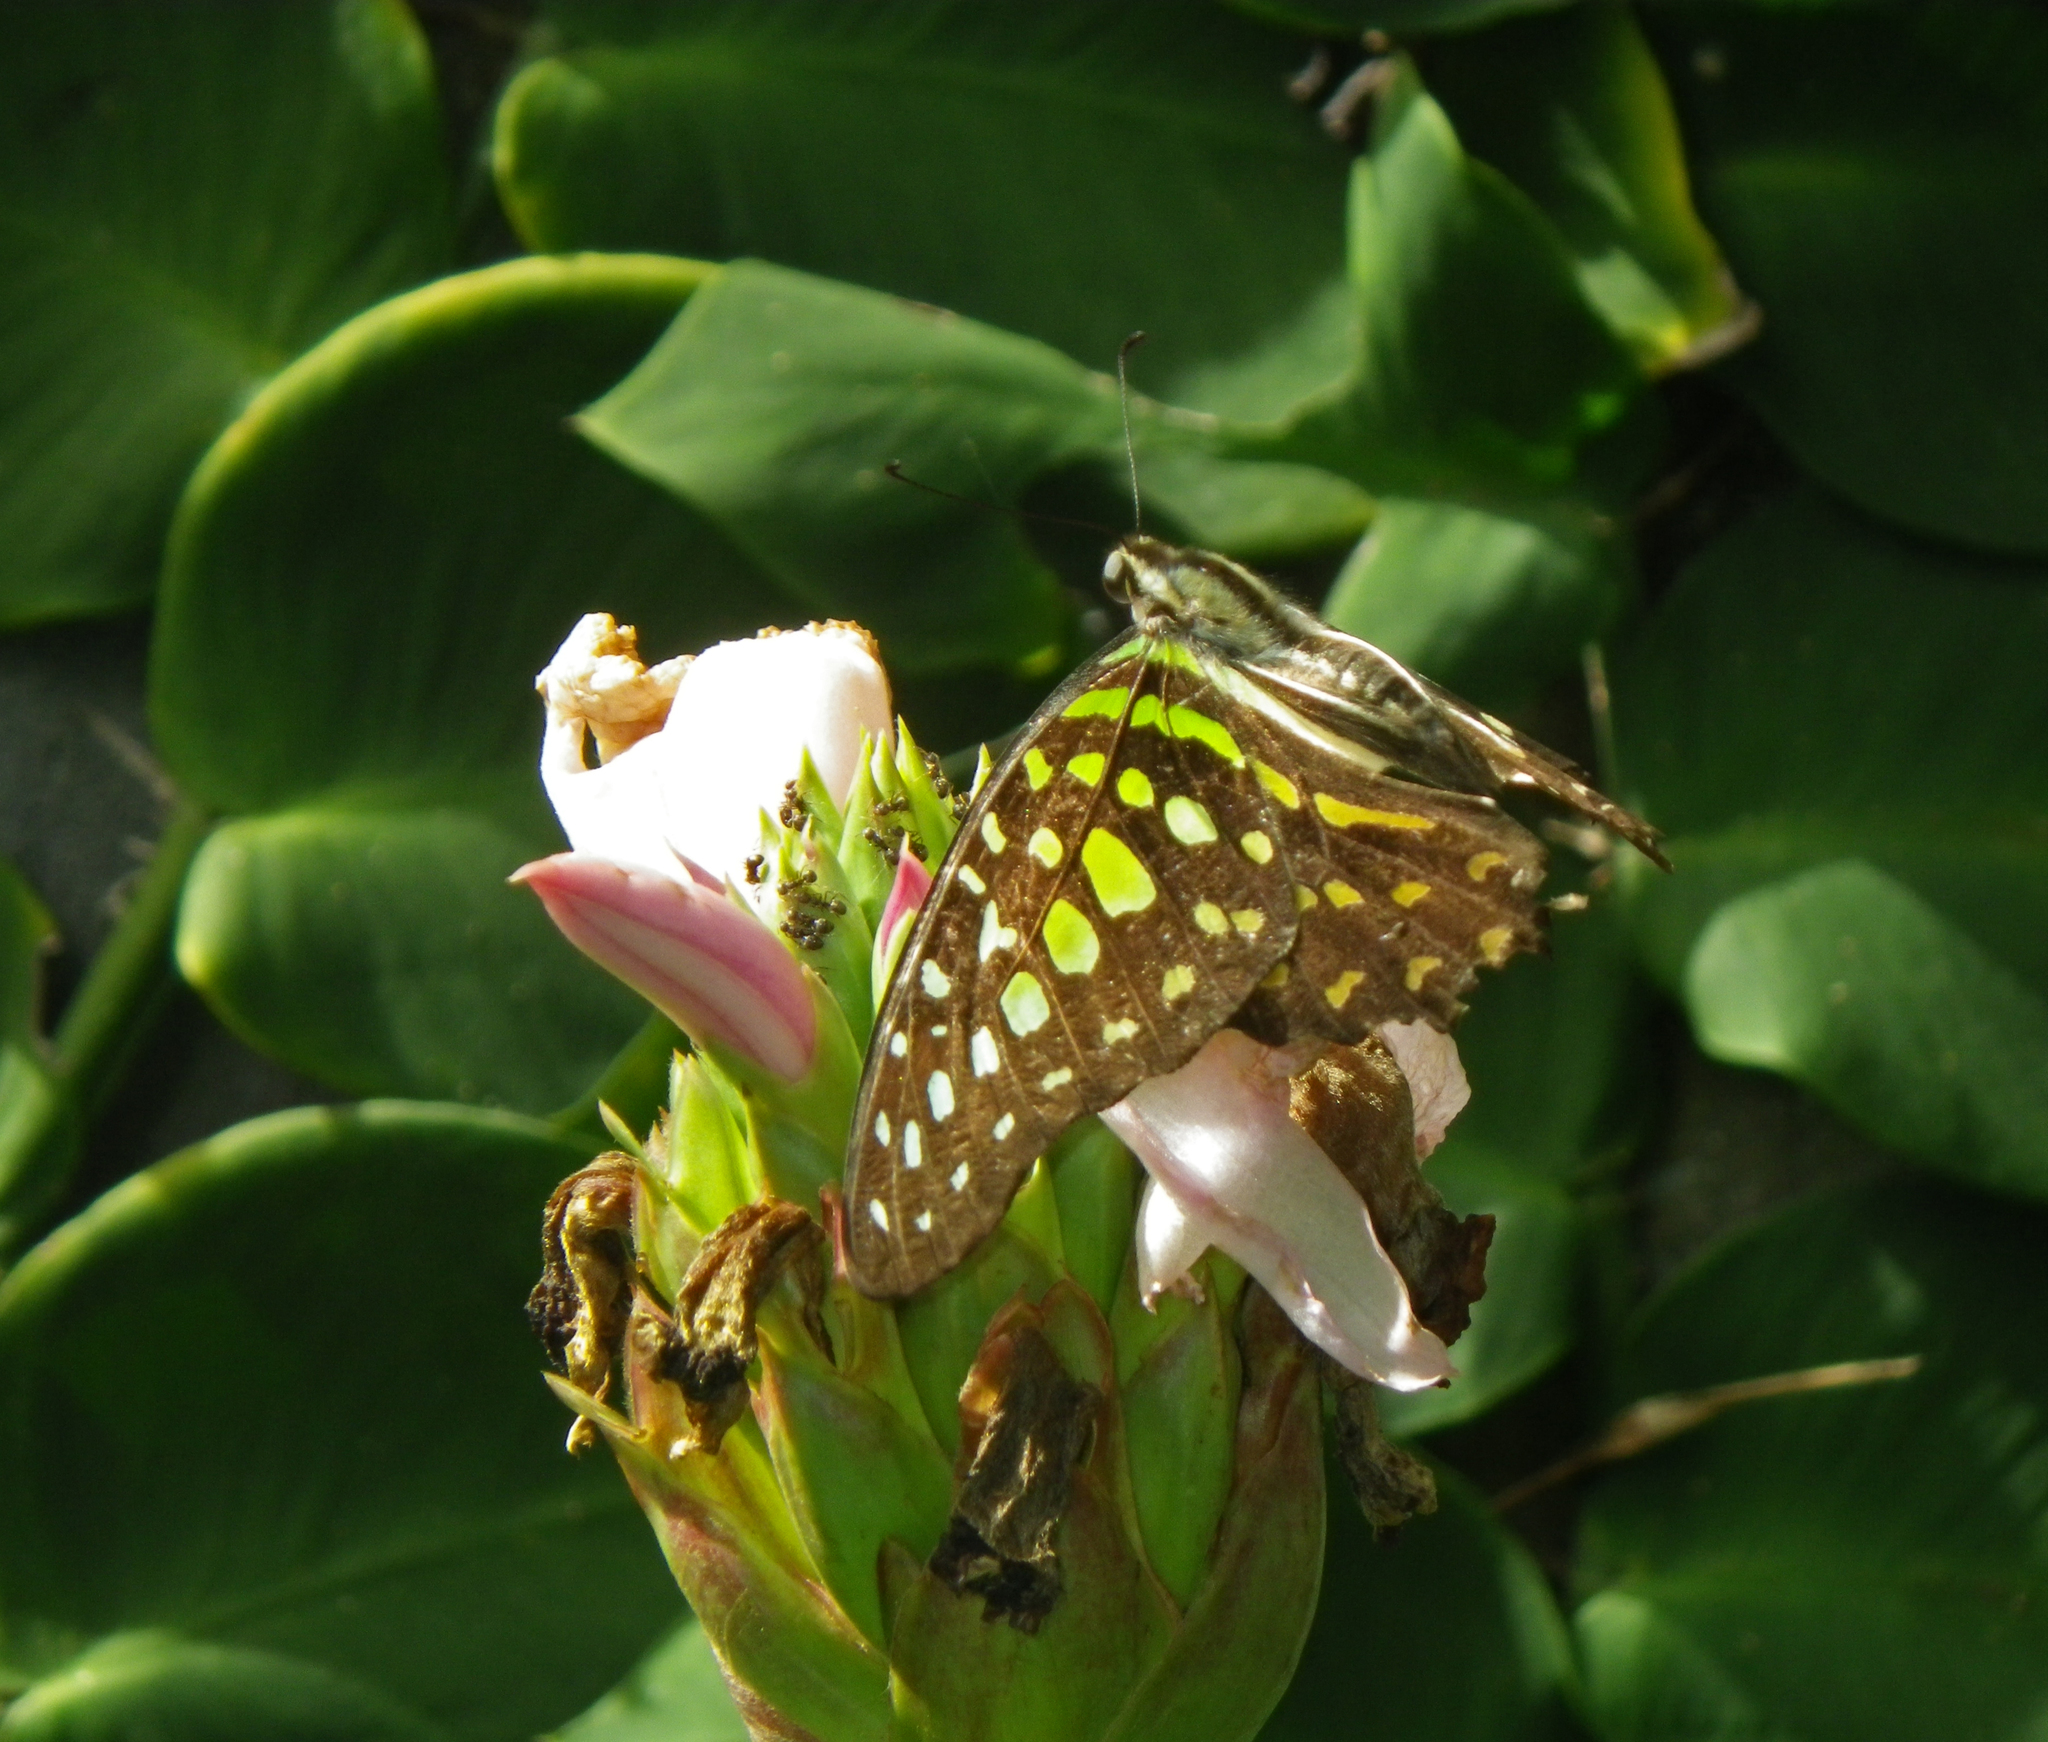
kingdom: Animalia
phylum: Arthropoda
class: Insecta
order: Lepidoptera
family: Papilionidae
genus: Graphium
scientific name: Graphium agamemnon
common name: Tailed jay
